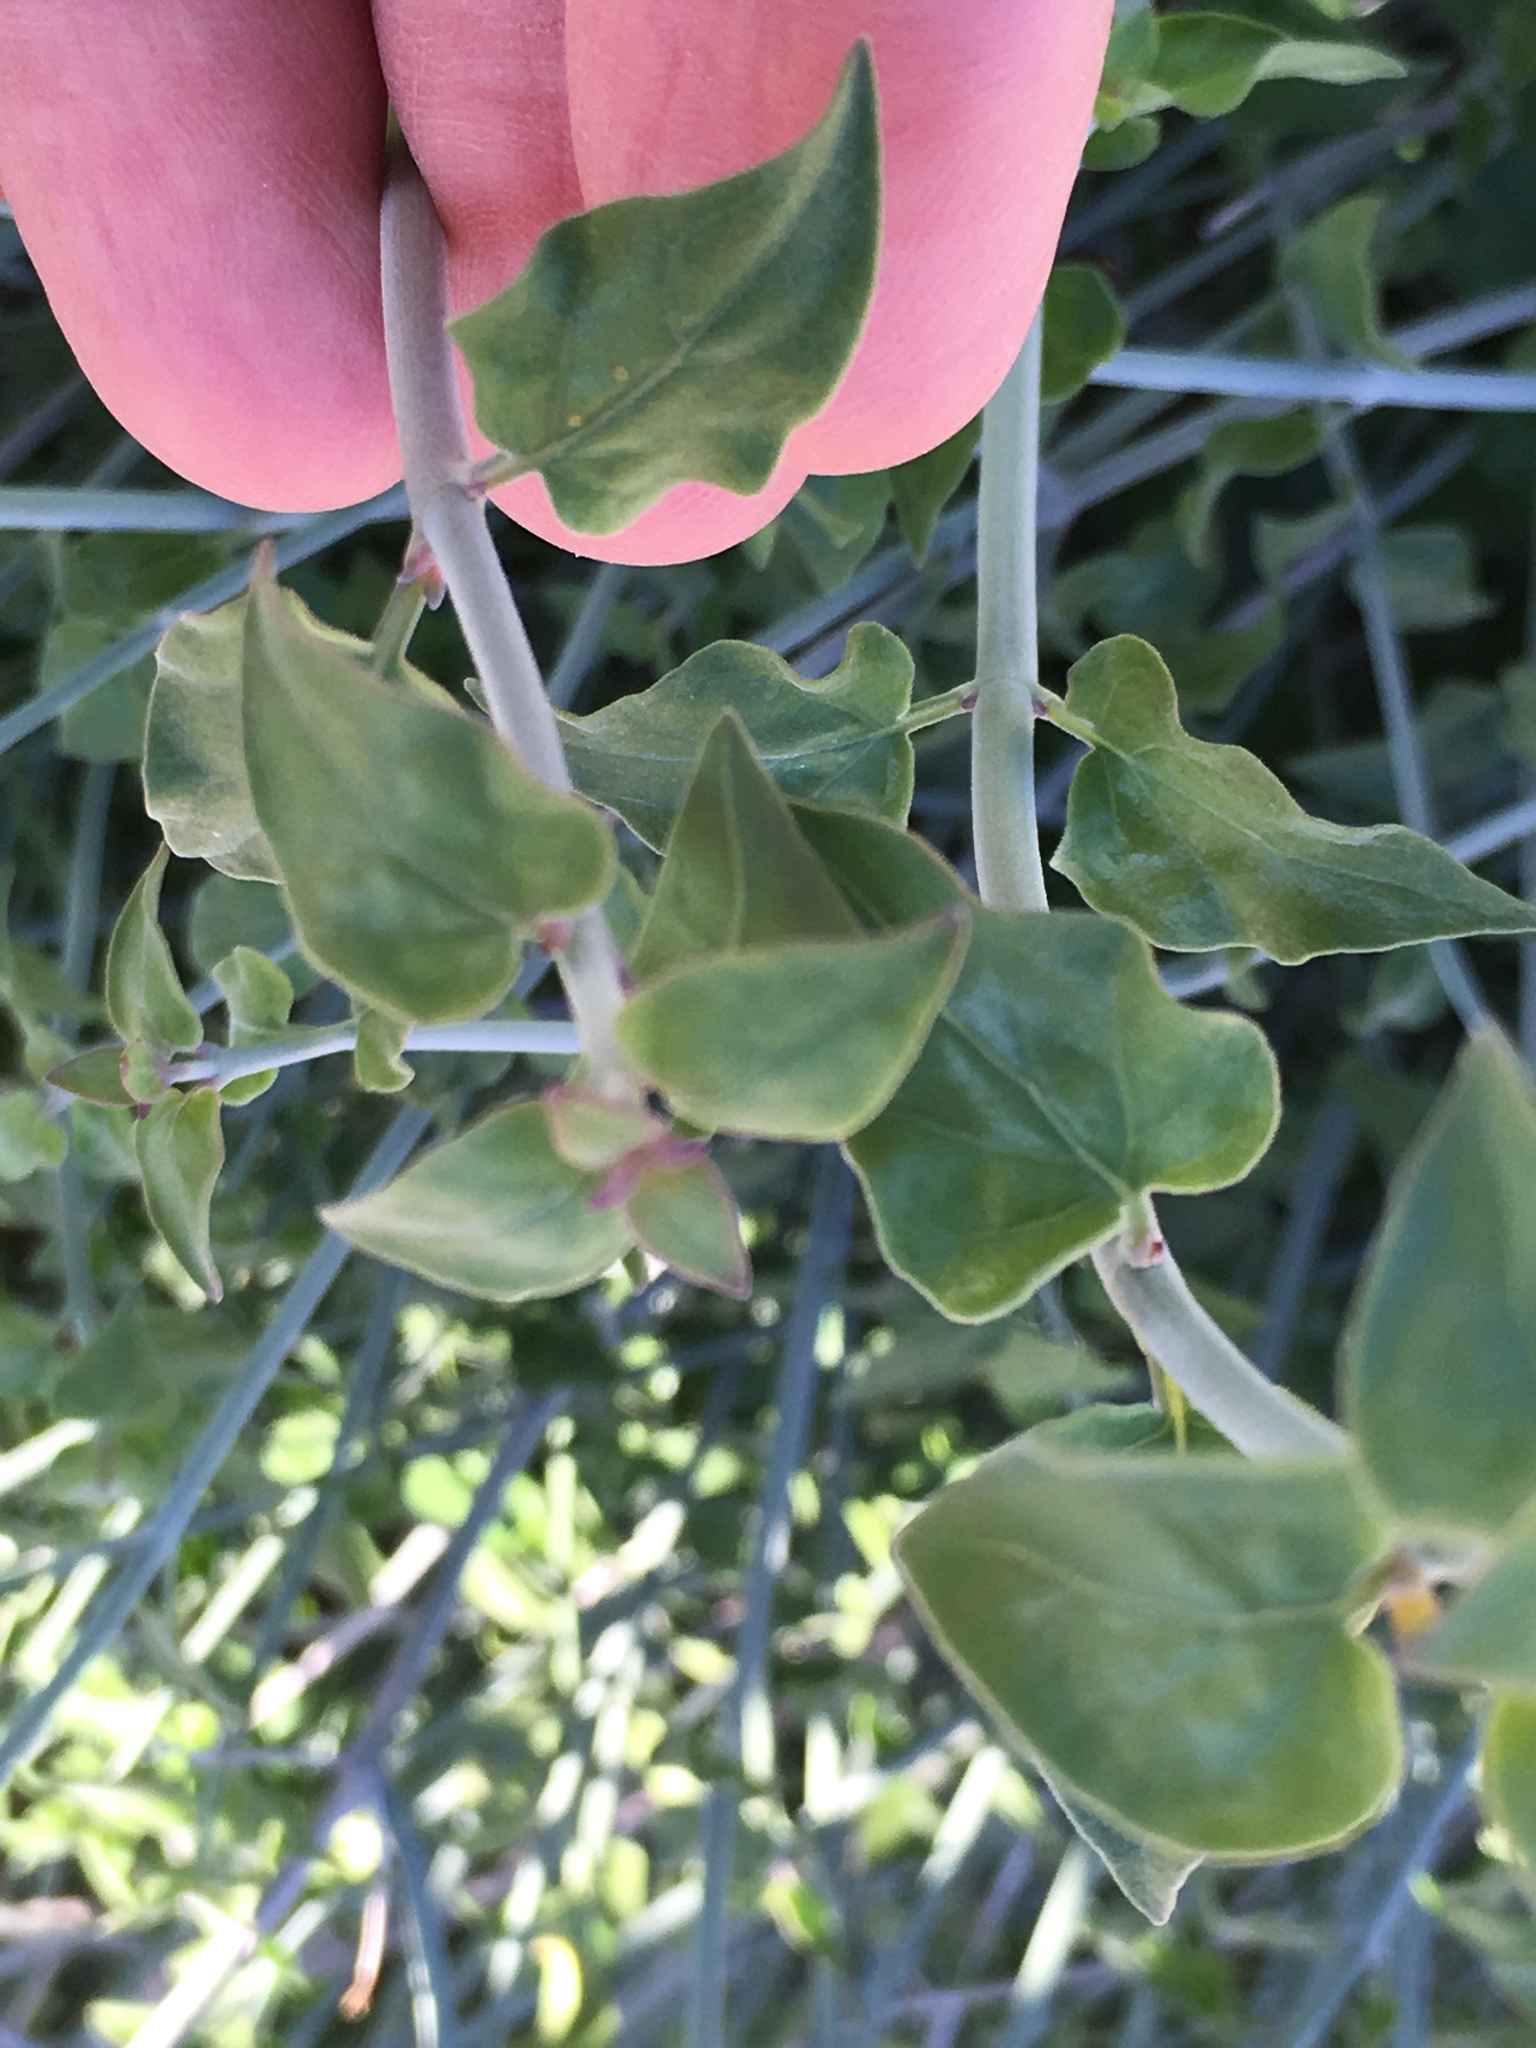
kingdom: Plantae
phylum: Tracheophyta
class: Magnoliopsida
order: Lamiales
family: Acanthaceae
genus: Justicia
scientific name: Justicia californica
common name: Chuparosa-honeysuckle
